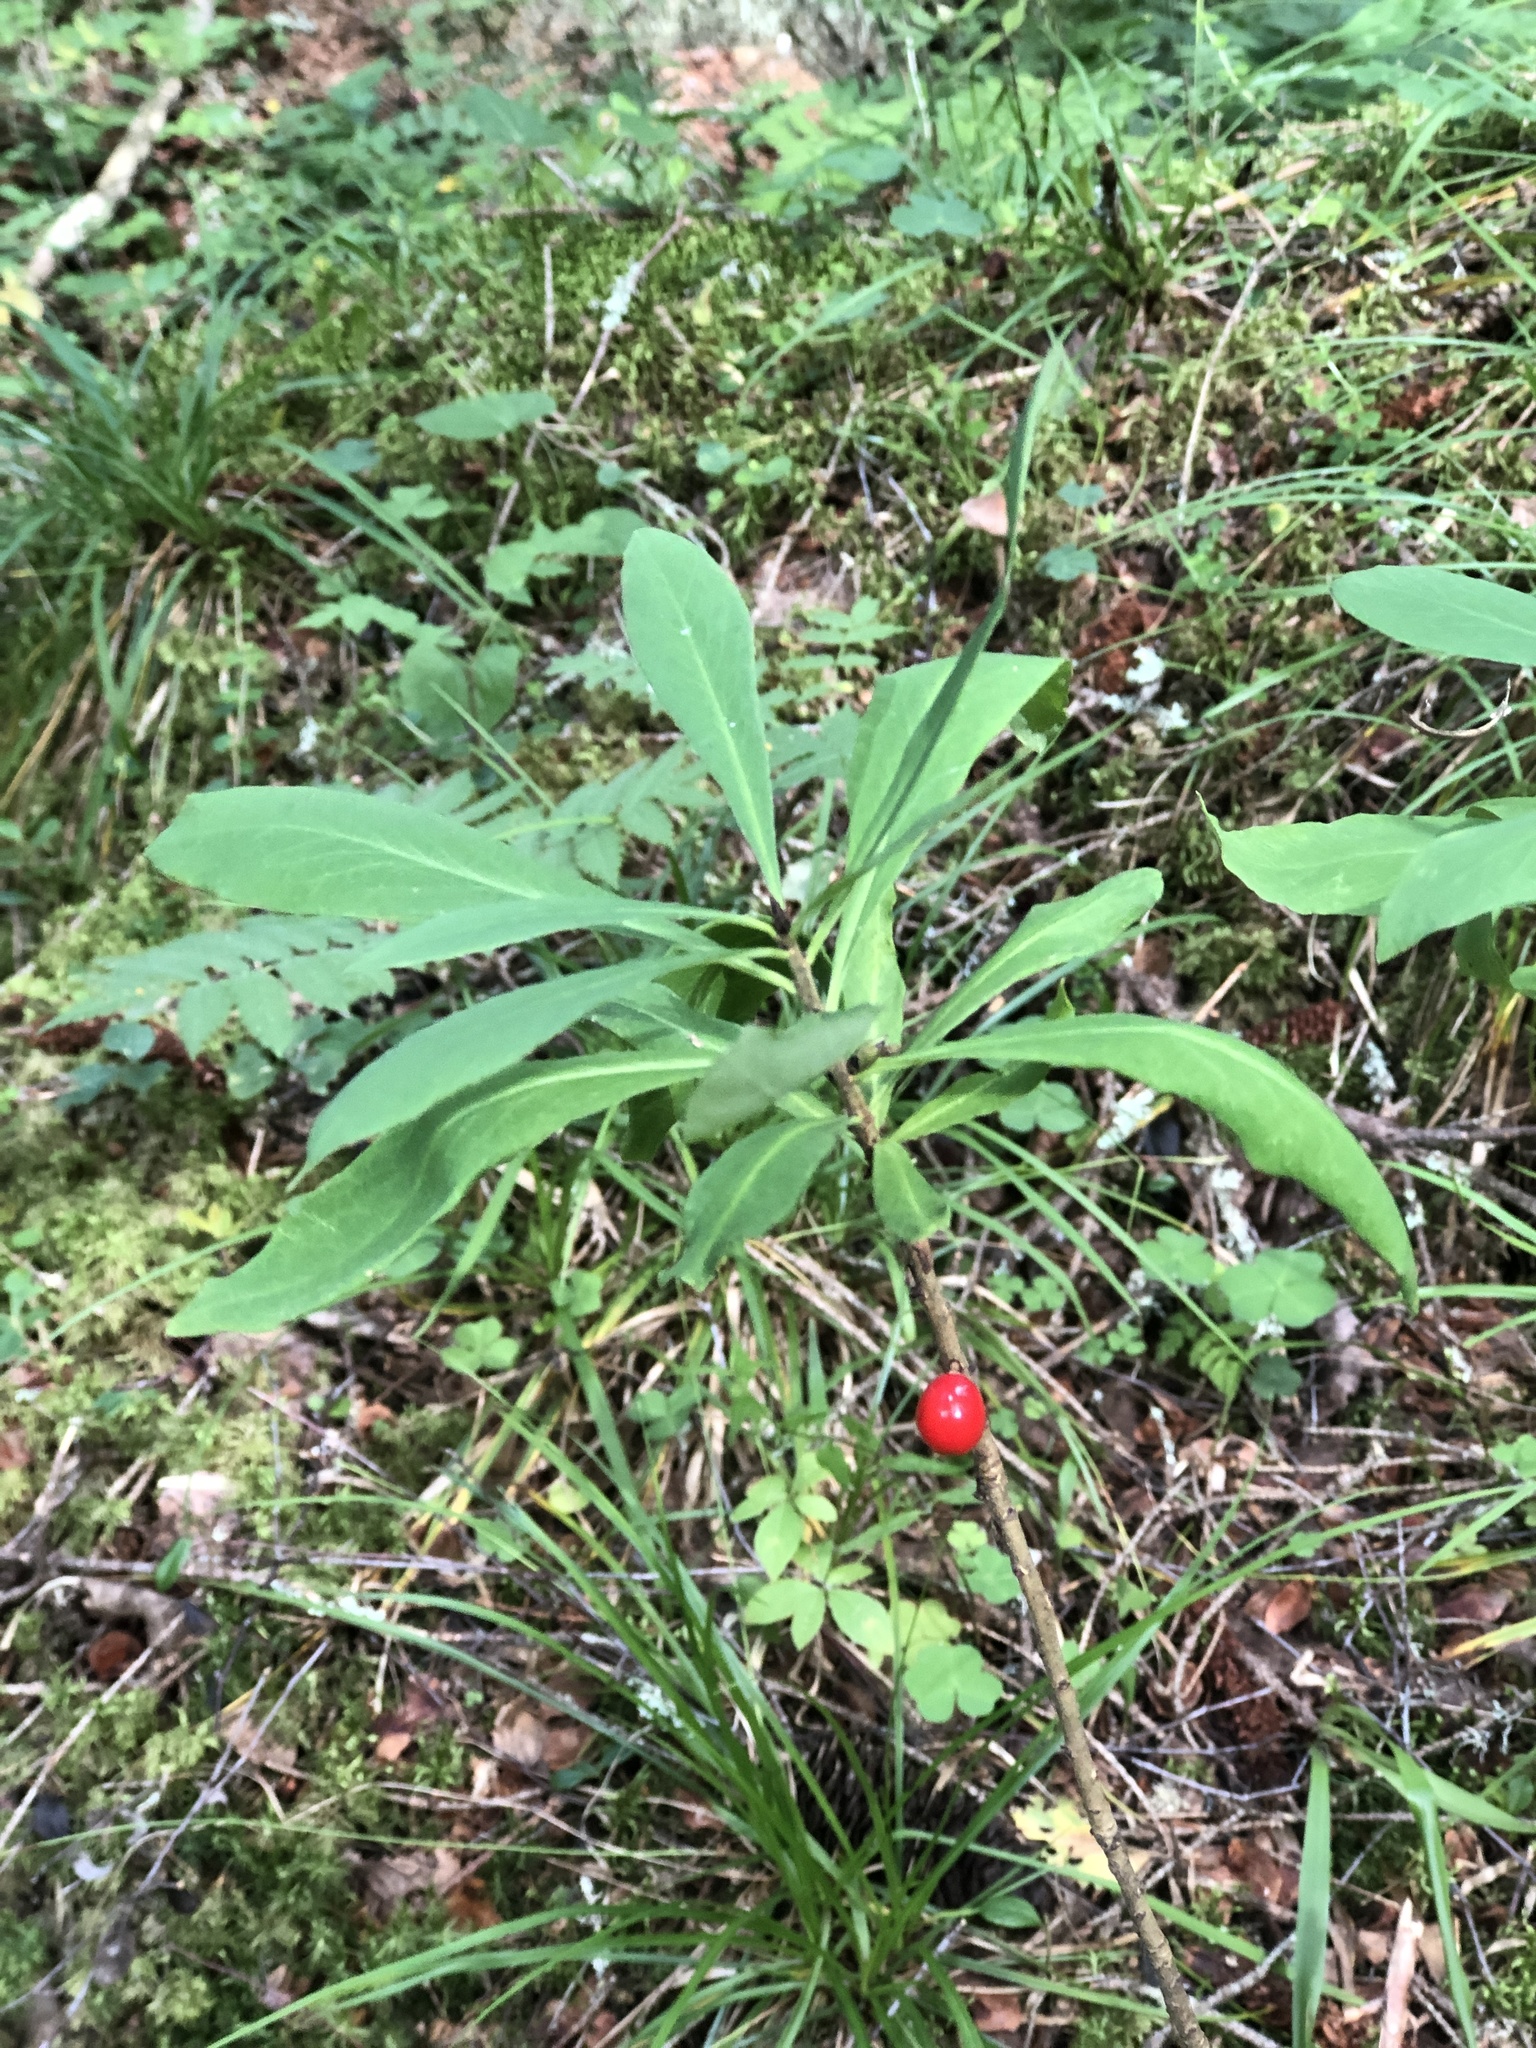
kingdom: Plantae
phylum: Tracheophyta
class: Magnoliopsida
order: Malvales
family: Thymelaeaceae
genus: Daphne
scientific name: Daphne mezereum
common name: Mezereon
